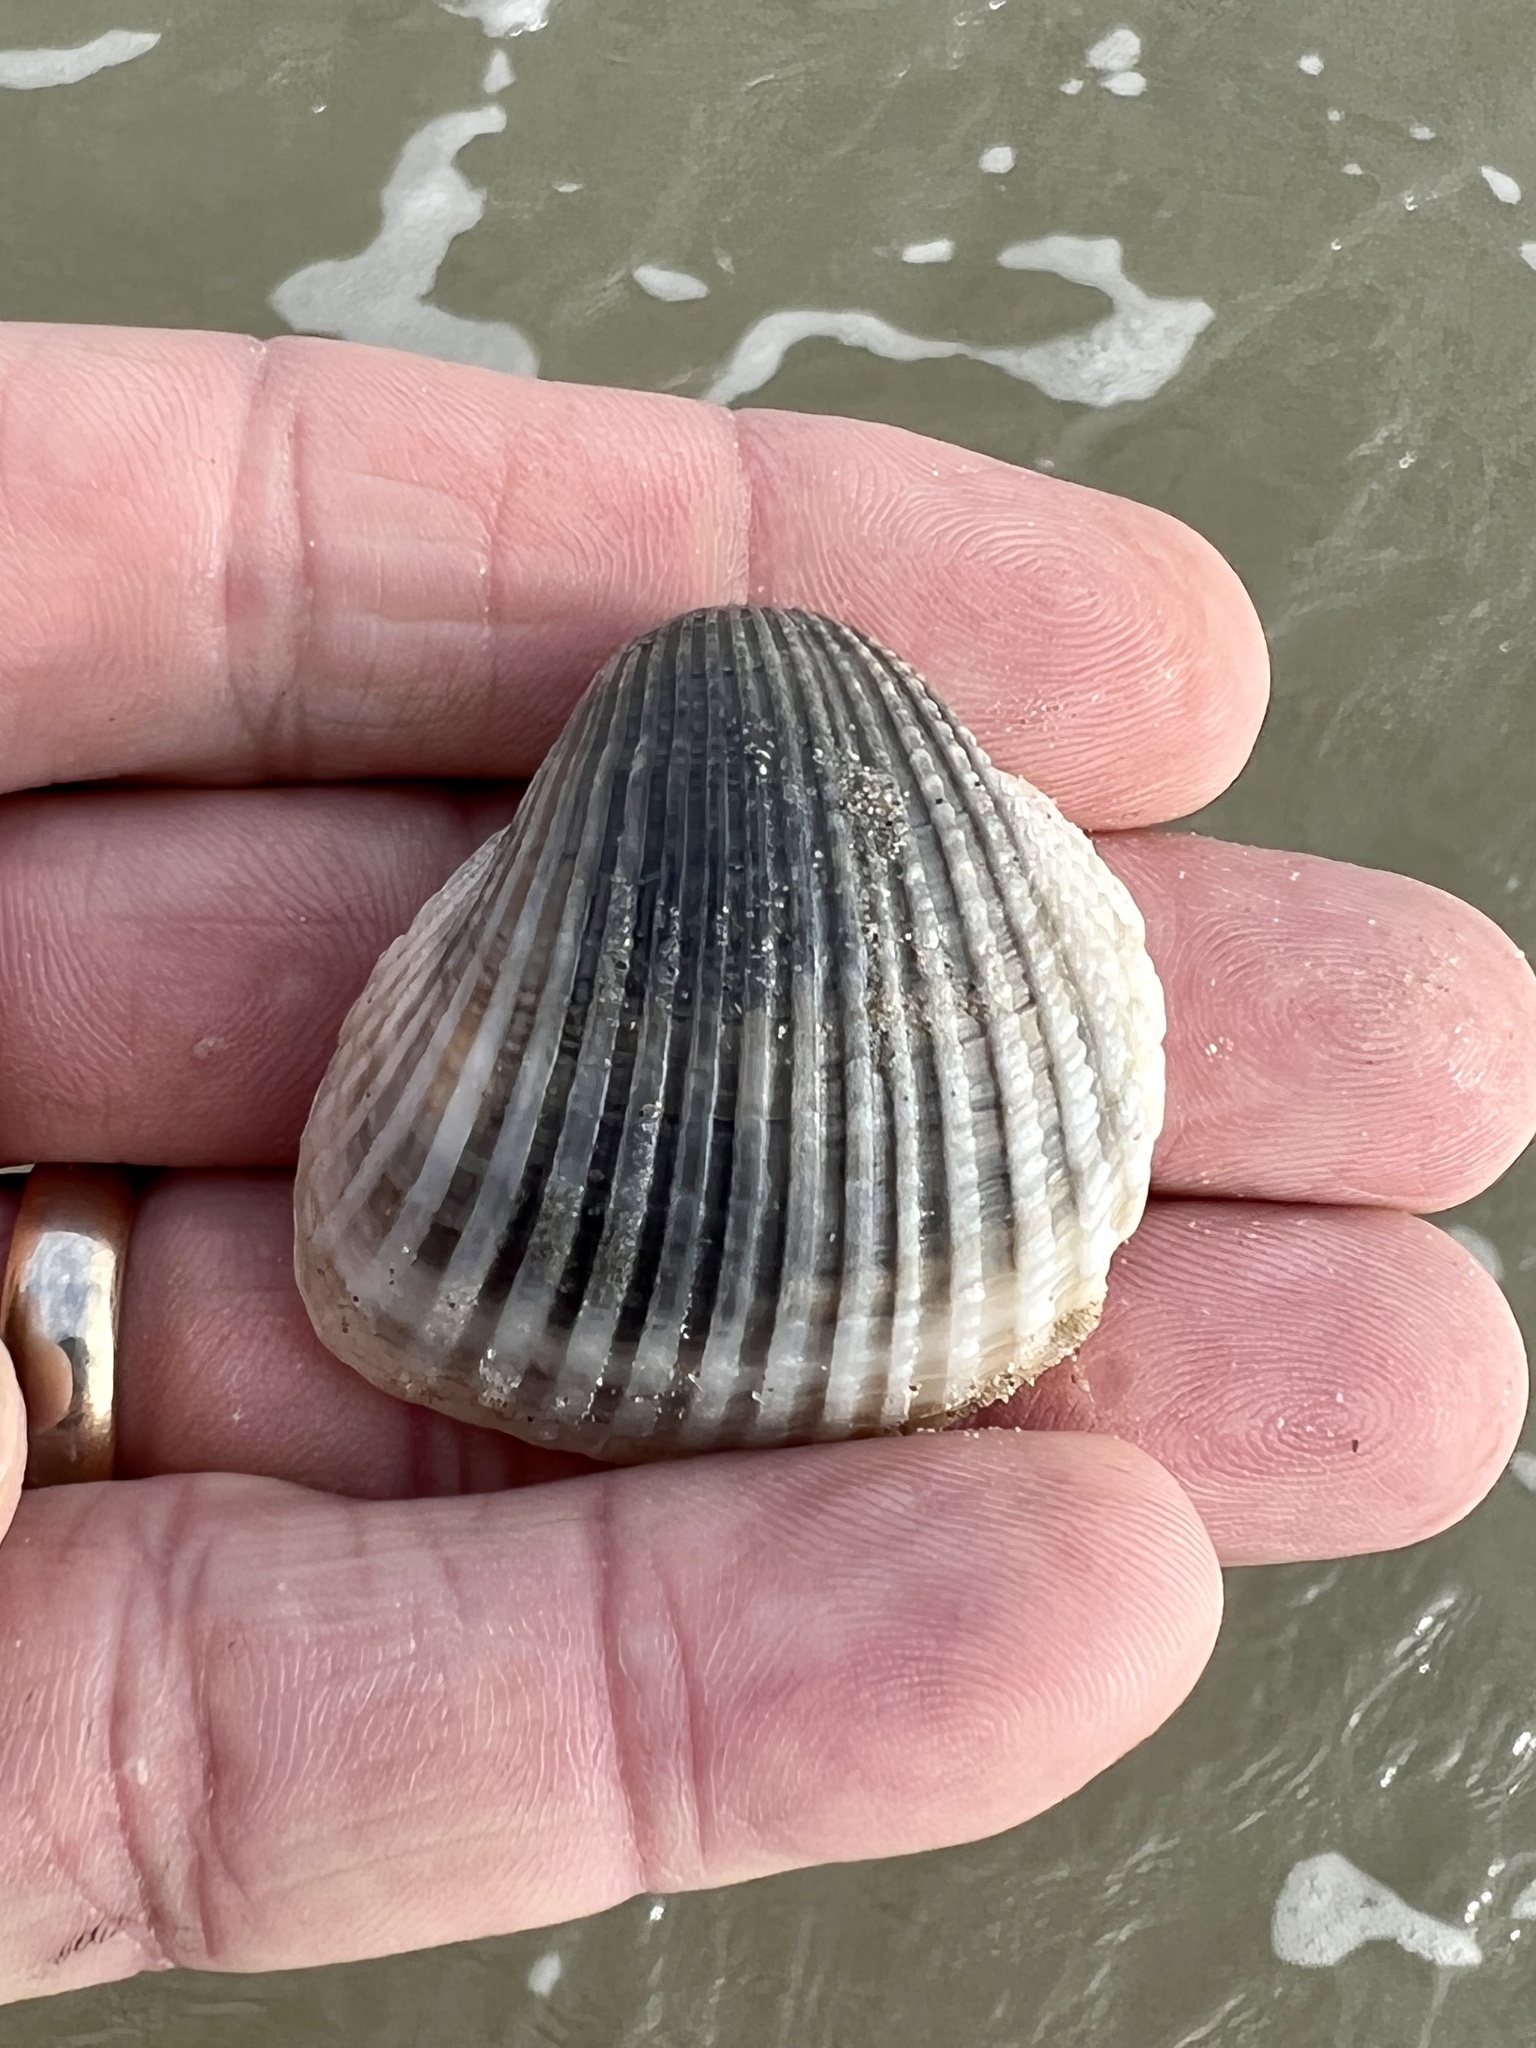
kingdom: Animalia
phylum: Mollusca
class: Bivalvia
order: Arcida
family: Arcidae
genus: Anadara
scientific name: Anadara brasiliana
